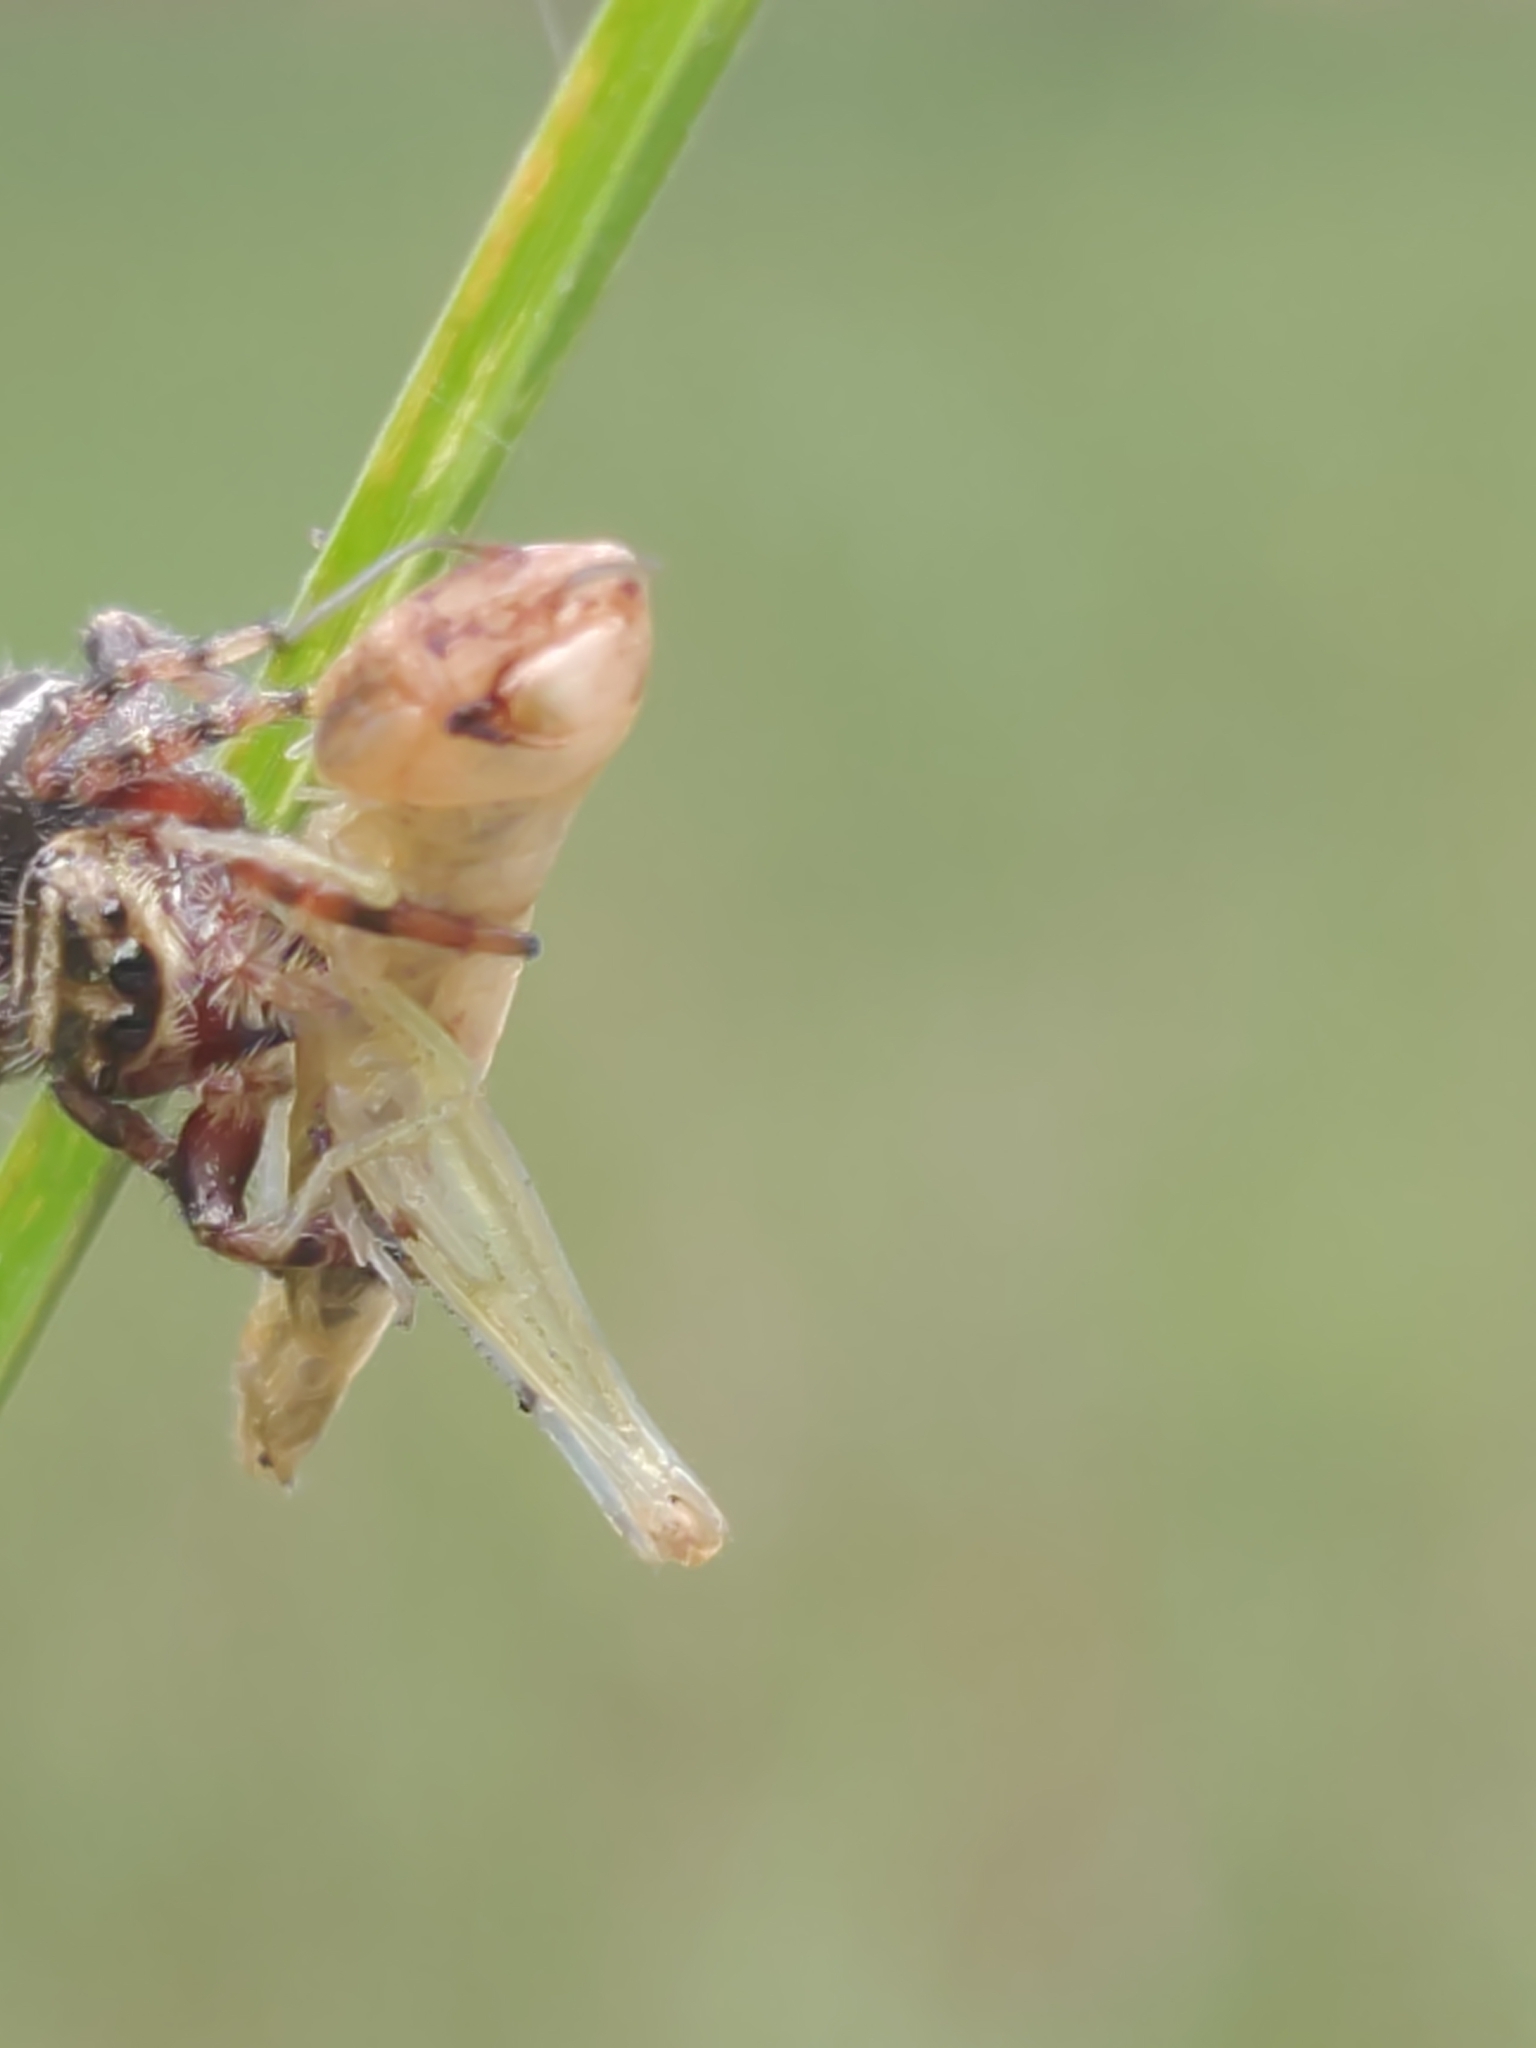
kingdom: Animalia
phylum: Arthropoda
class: Arachnida
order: Araneae
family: Salticidae
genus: Phidippus
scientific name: Phidippus clarus
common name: Brilliant jumping spider
